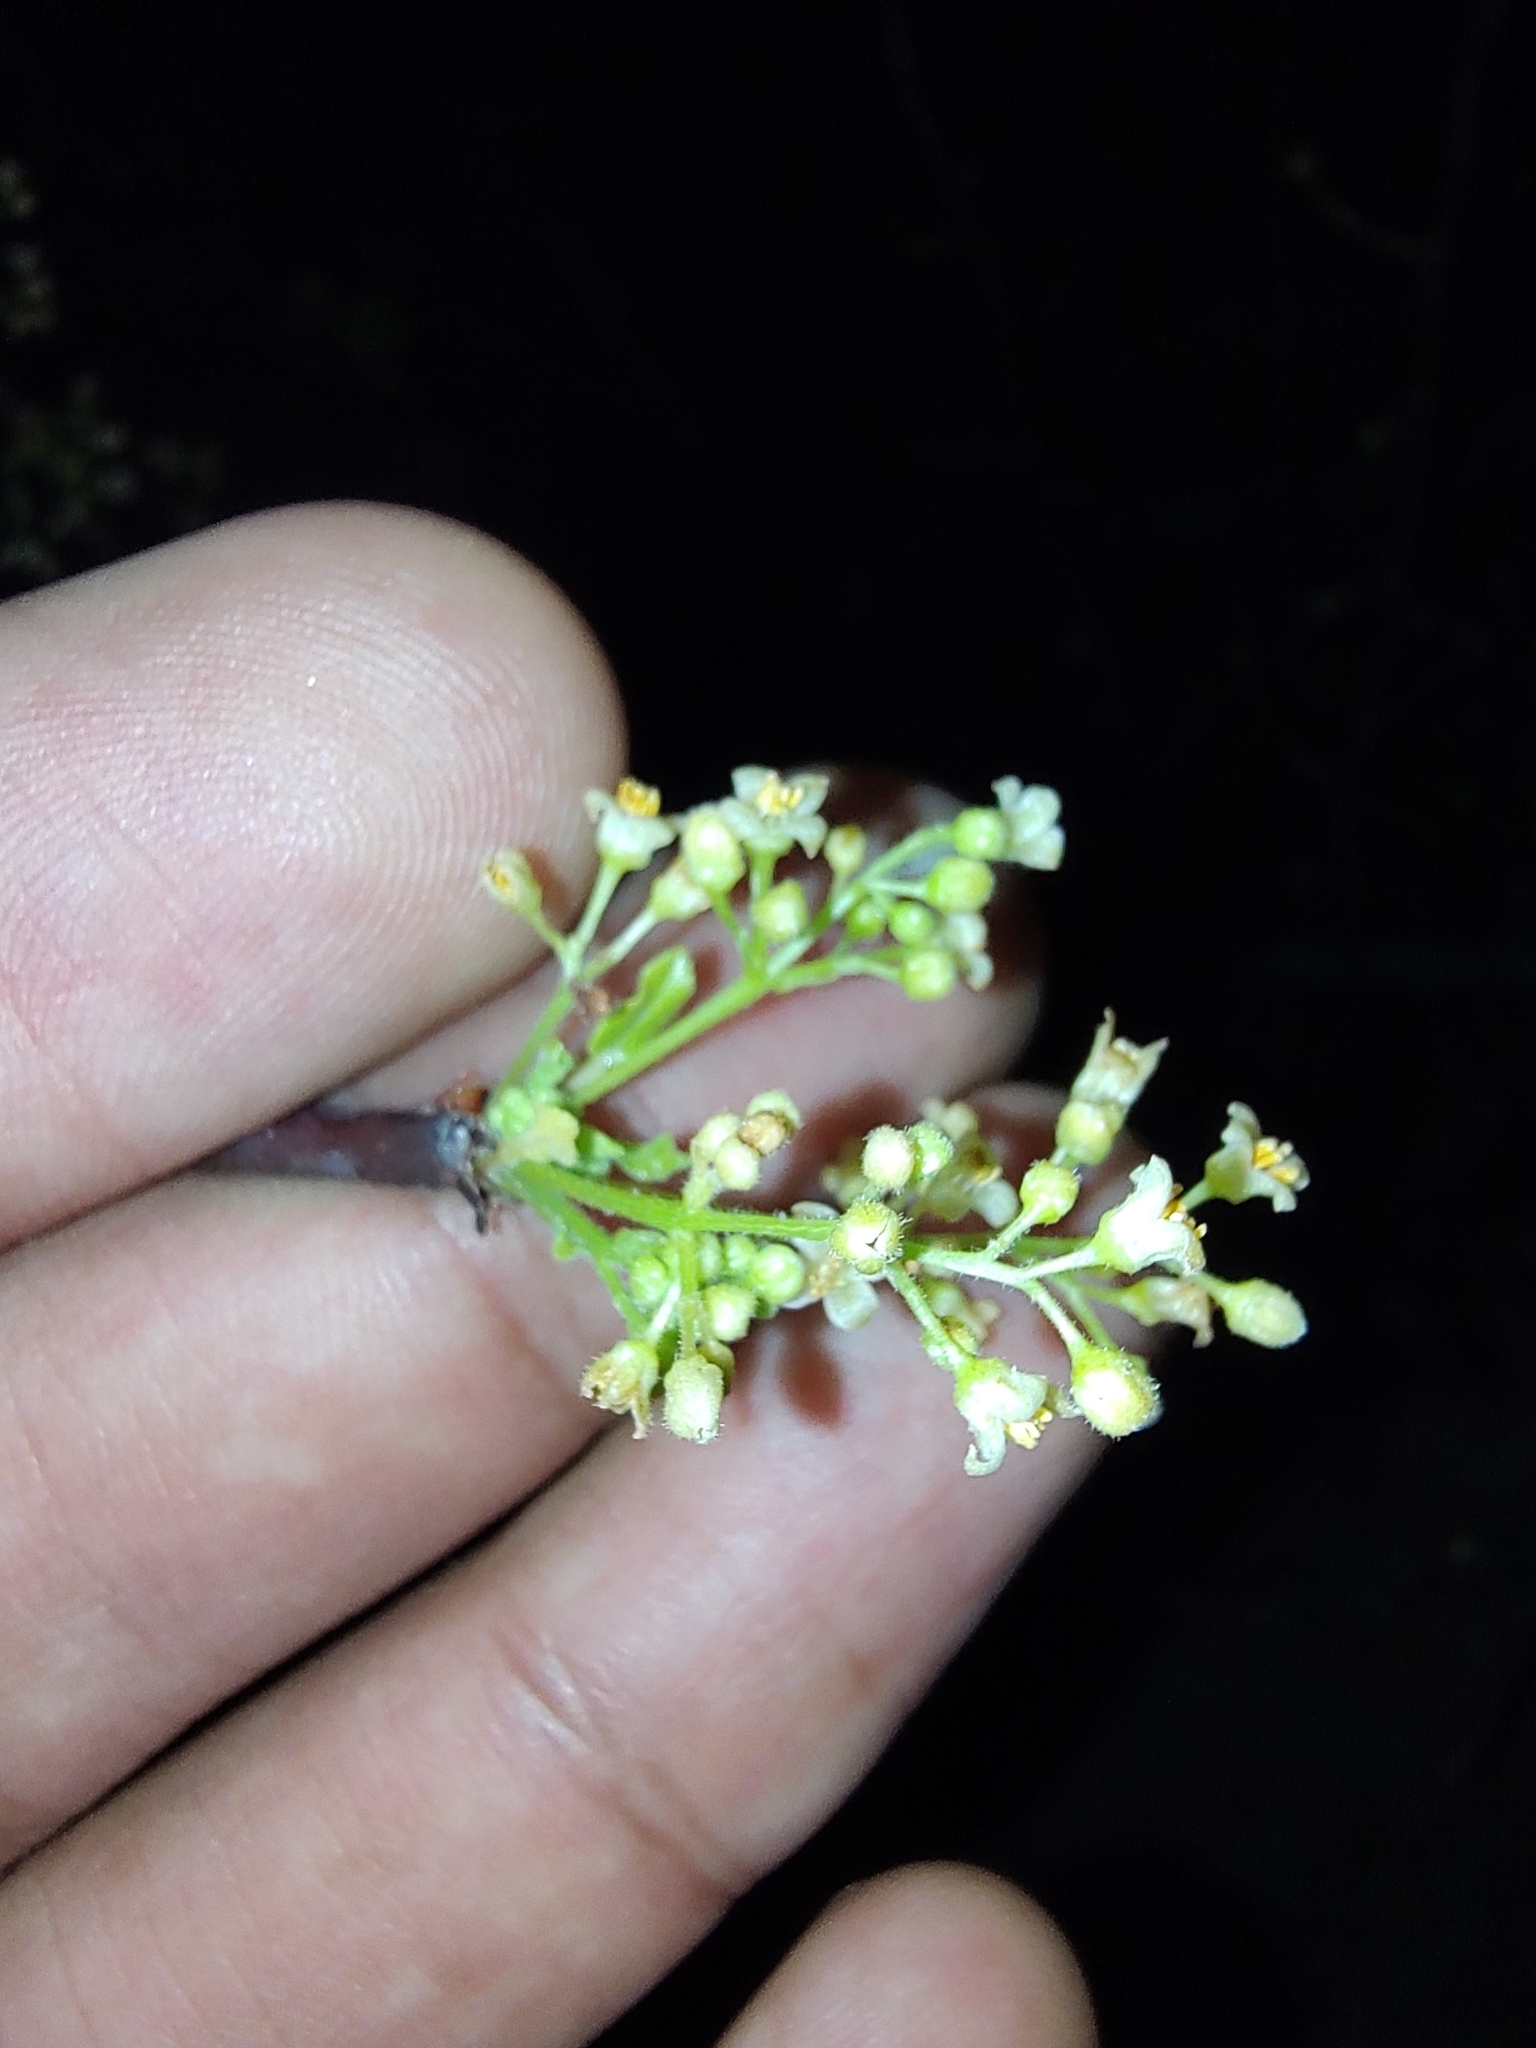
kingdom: Plantae
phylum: Tracheophyta
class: Magnoliopsida
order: Sapindales
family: Burseraceae
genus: Bursera
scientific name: Bursera epinnata
